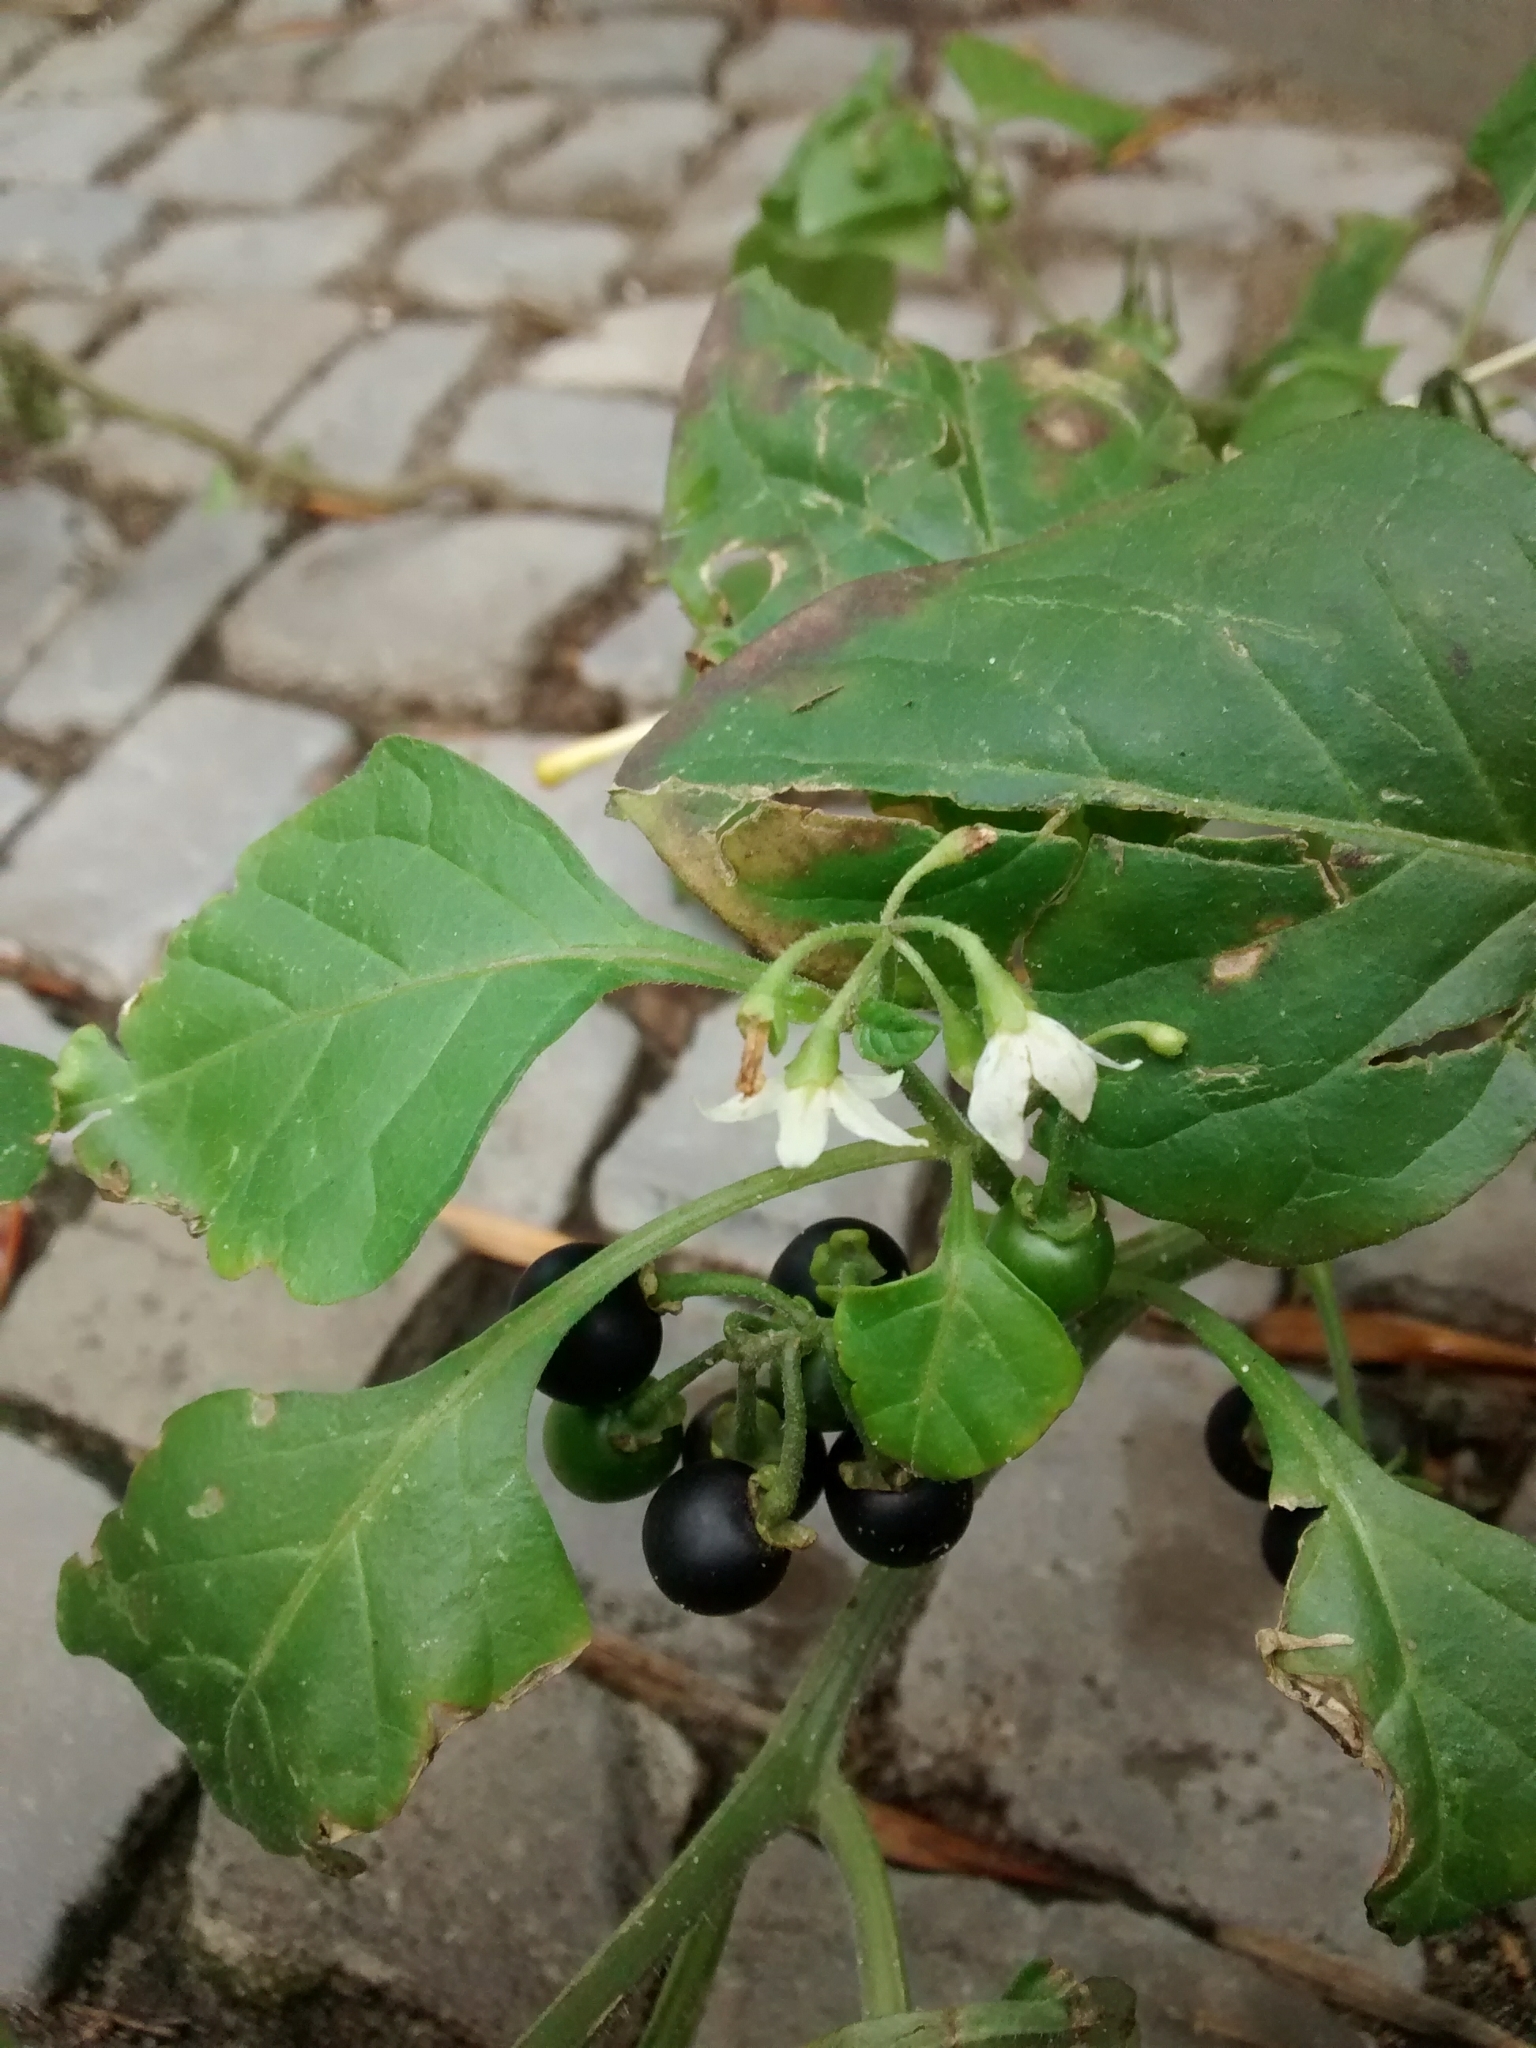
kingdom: Plantae
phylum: Tracheophyta
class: Magnoliopsida
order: Solanales
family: Solanaceae
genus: Solanum
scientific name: Solanum nigrum
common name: Black nightshade
